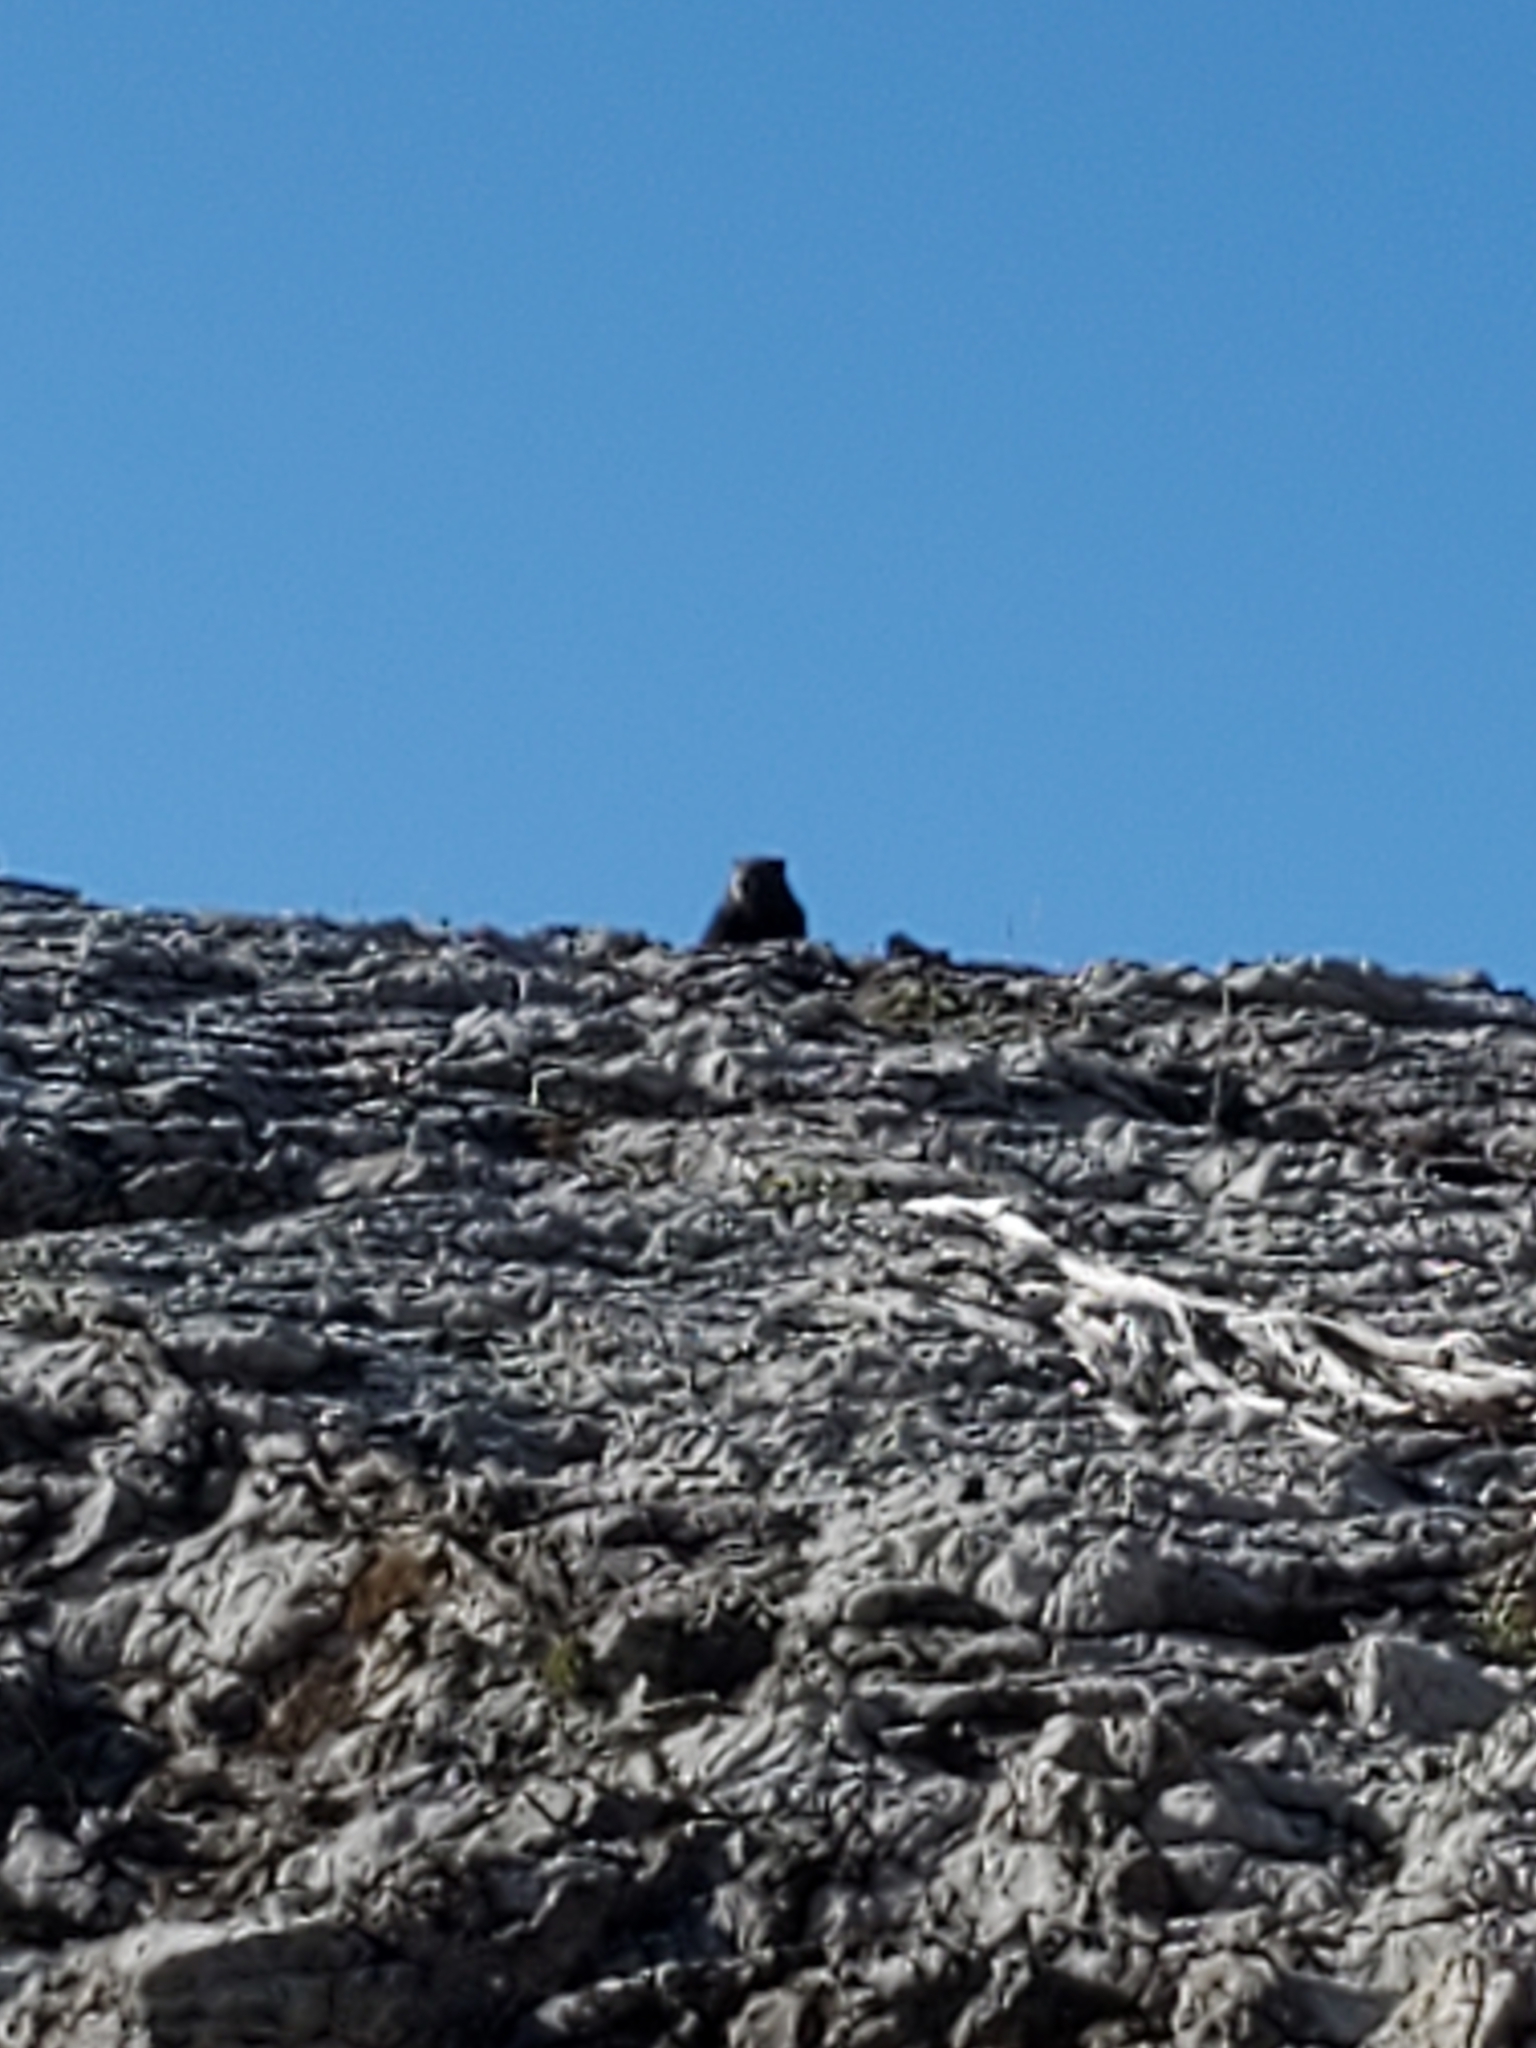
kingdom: Animalia
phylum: Chordata
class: Mammalia
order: Rodentia
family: Sciuridae
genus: Marmota
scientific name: Marmota vancouverensis
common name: Vancouver island marmot
